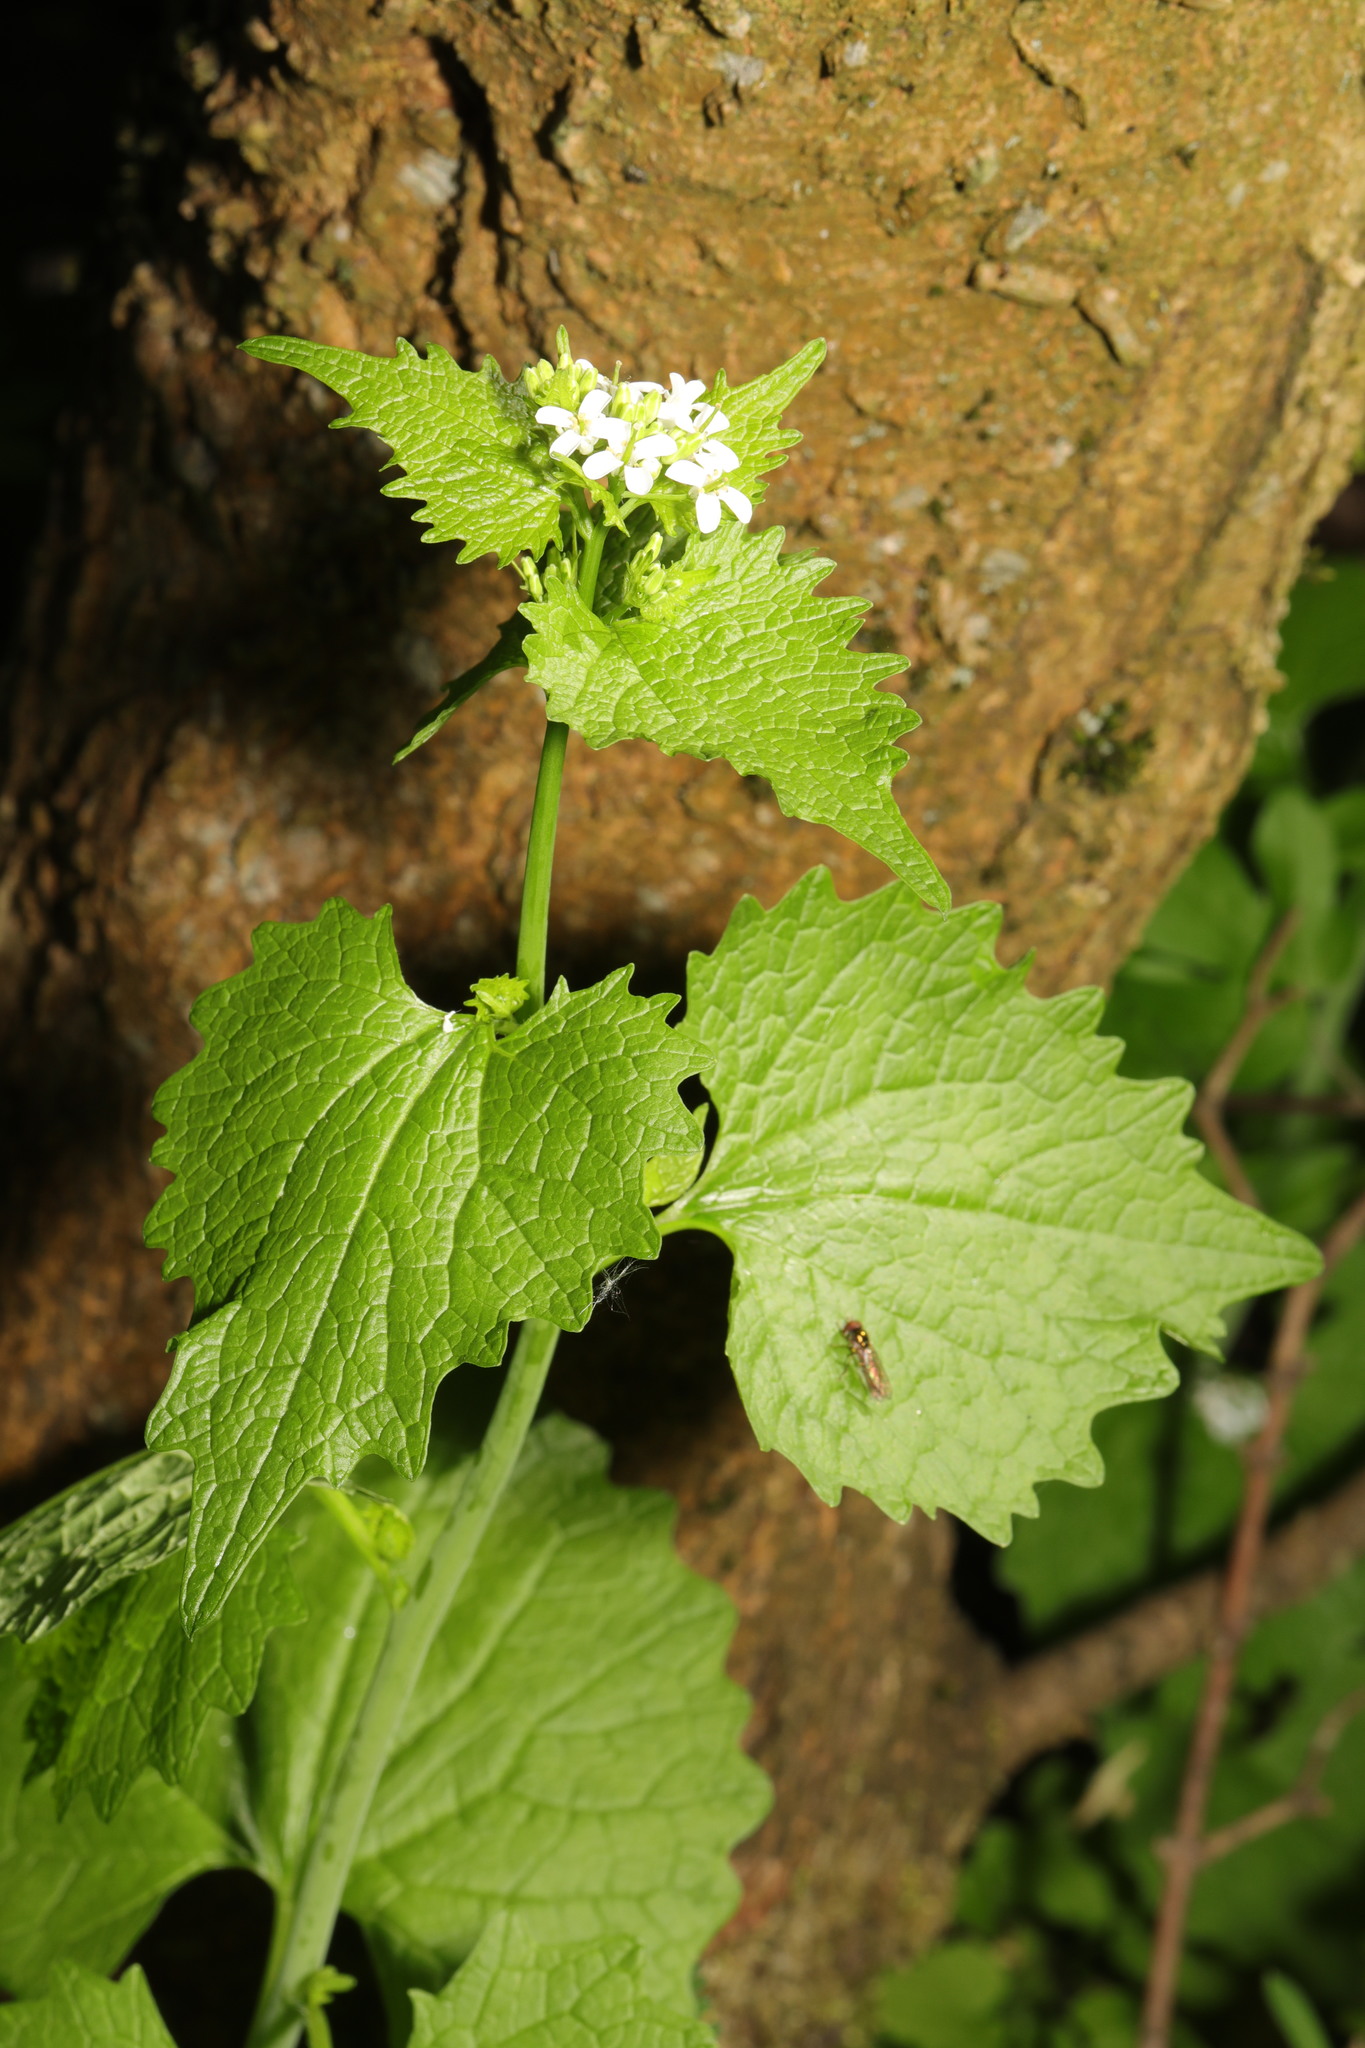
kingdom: Plantae
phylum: Tracheophyta
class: Magnoliopsida
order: Brassicales
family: Brassicaceae
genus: Alliaria
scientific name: Alliaria petiolata
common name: Garlic mustard
